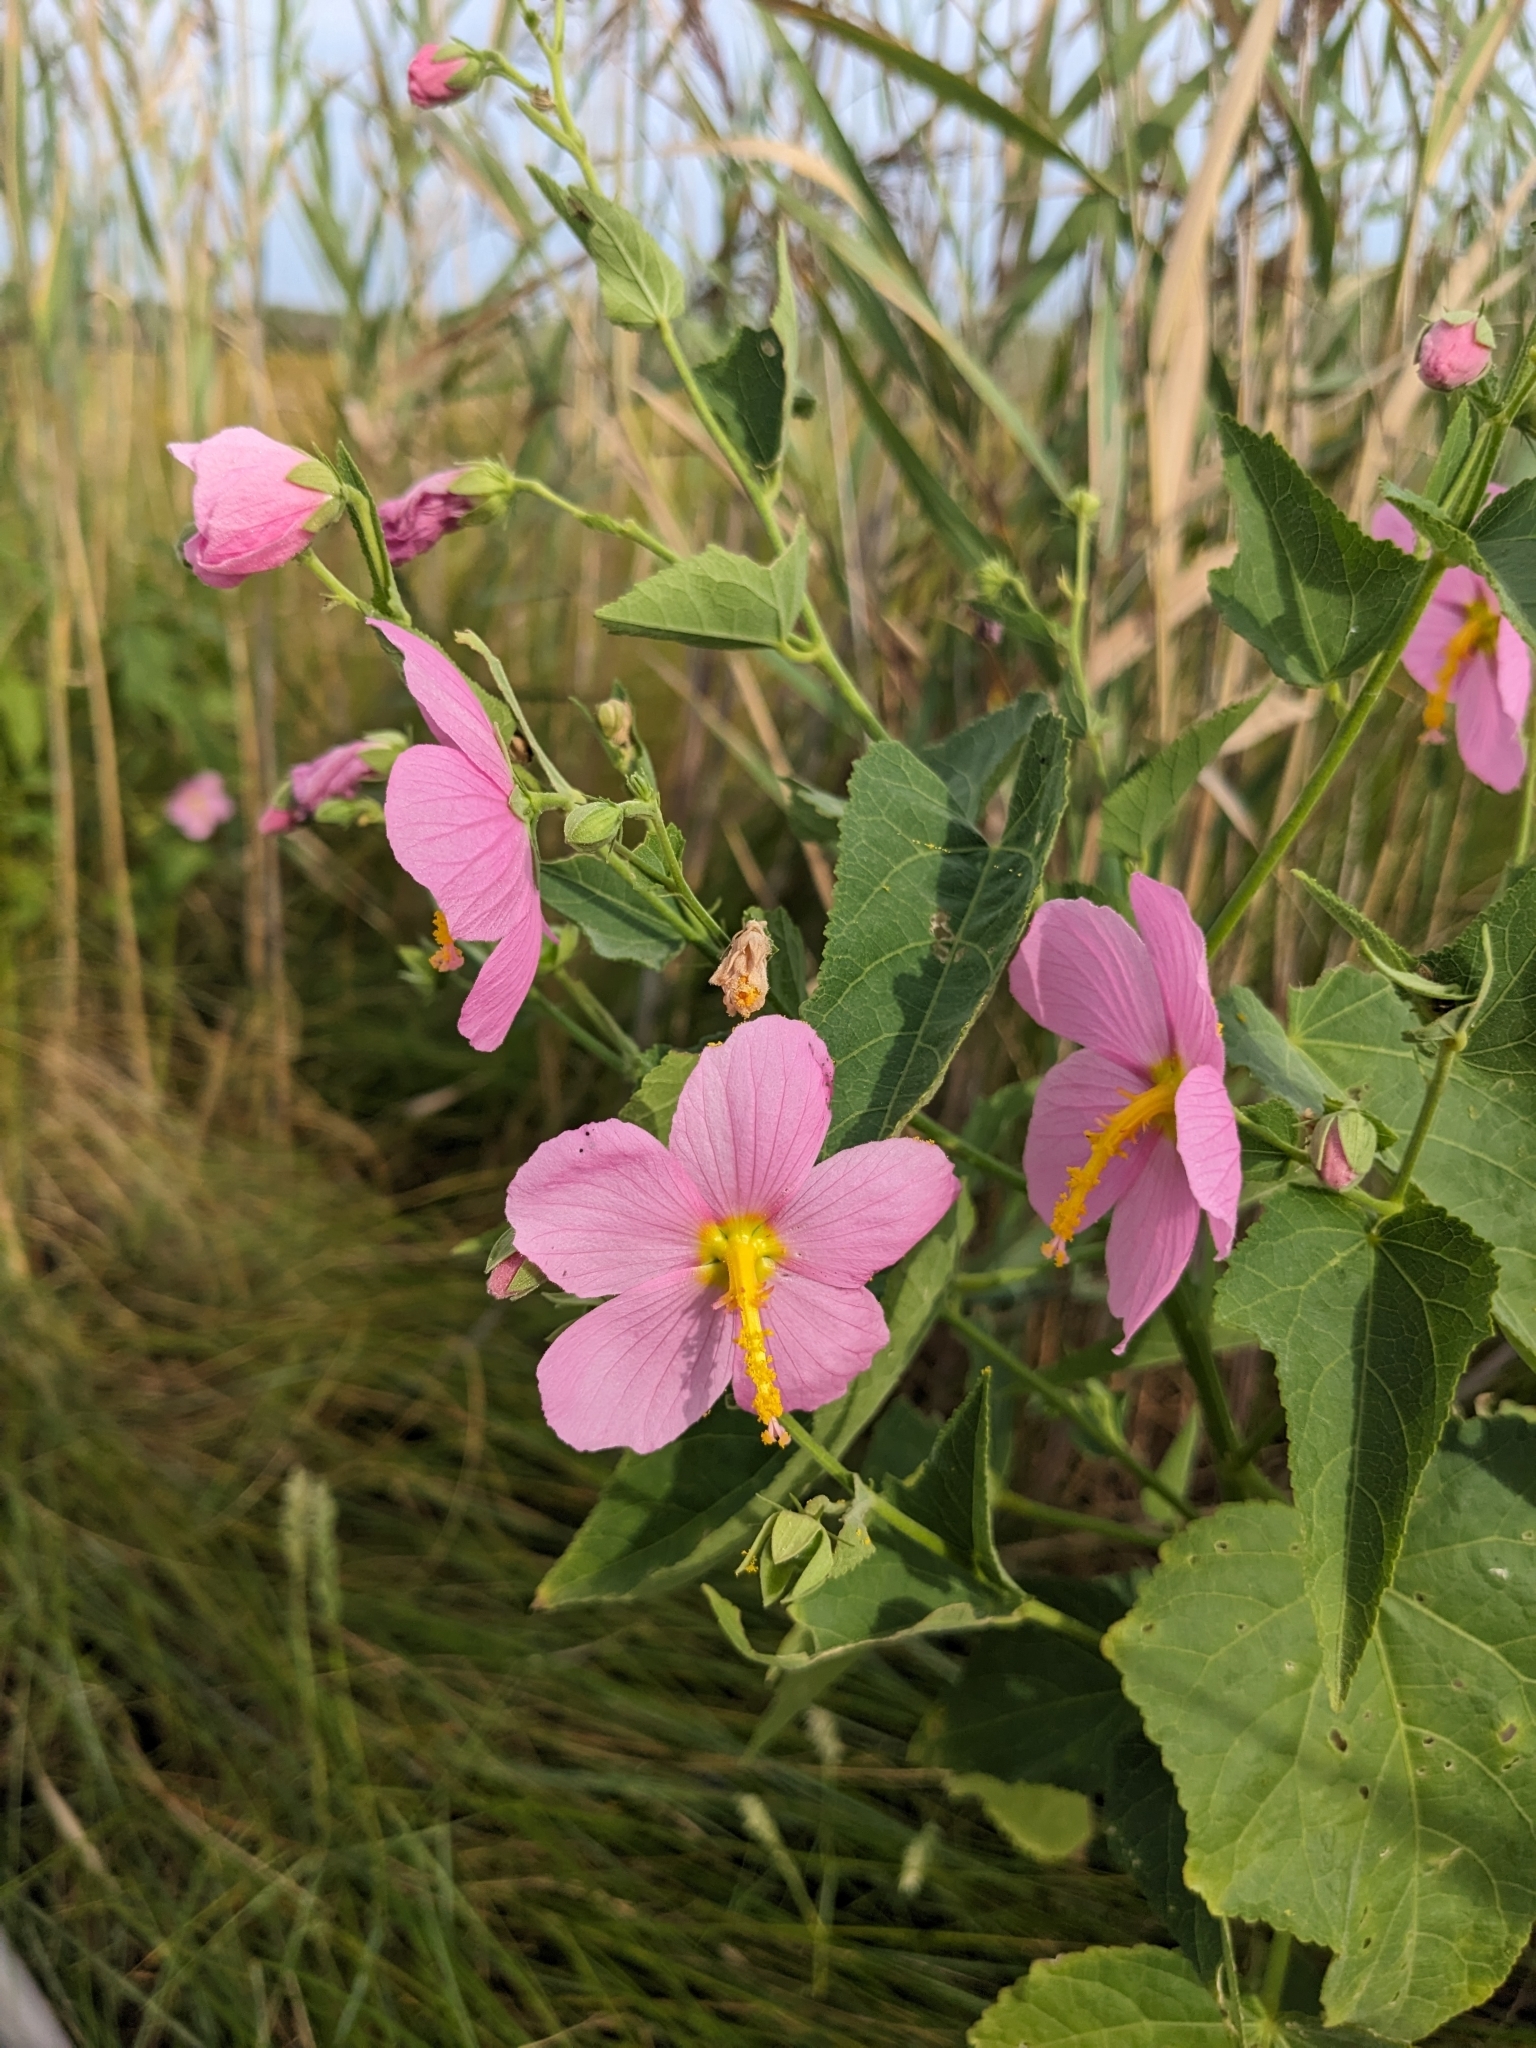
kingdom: Plantae
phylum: Tracheophyta
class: Magnoliopsida
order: Malvales
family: Malvaceae
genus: Kosteletzkya
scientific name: Kosteletzkya pentacarpos
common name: Virginia saltmarsh mallow
